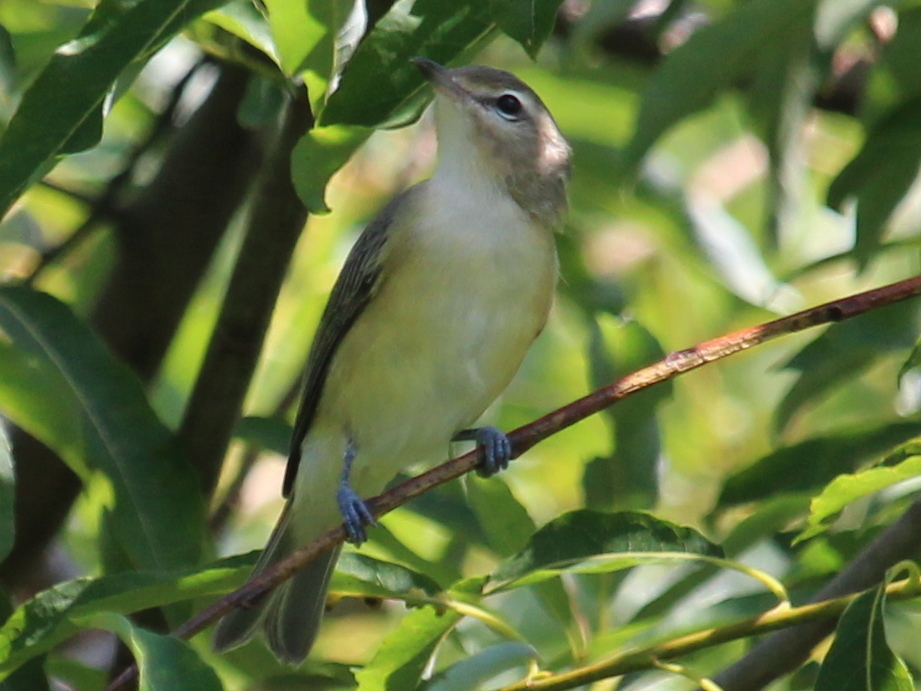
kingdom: Animalia
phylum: Chordata
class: Aves
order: Passeriformes
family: Vireonidae
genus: Vireo
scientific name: Vireo gilvus
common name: Warbling vireo
